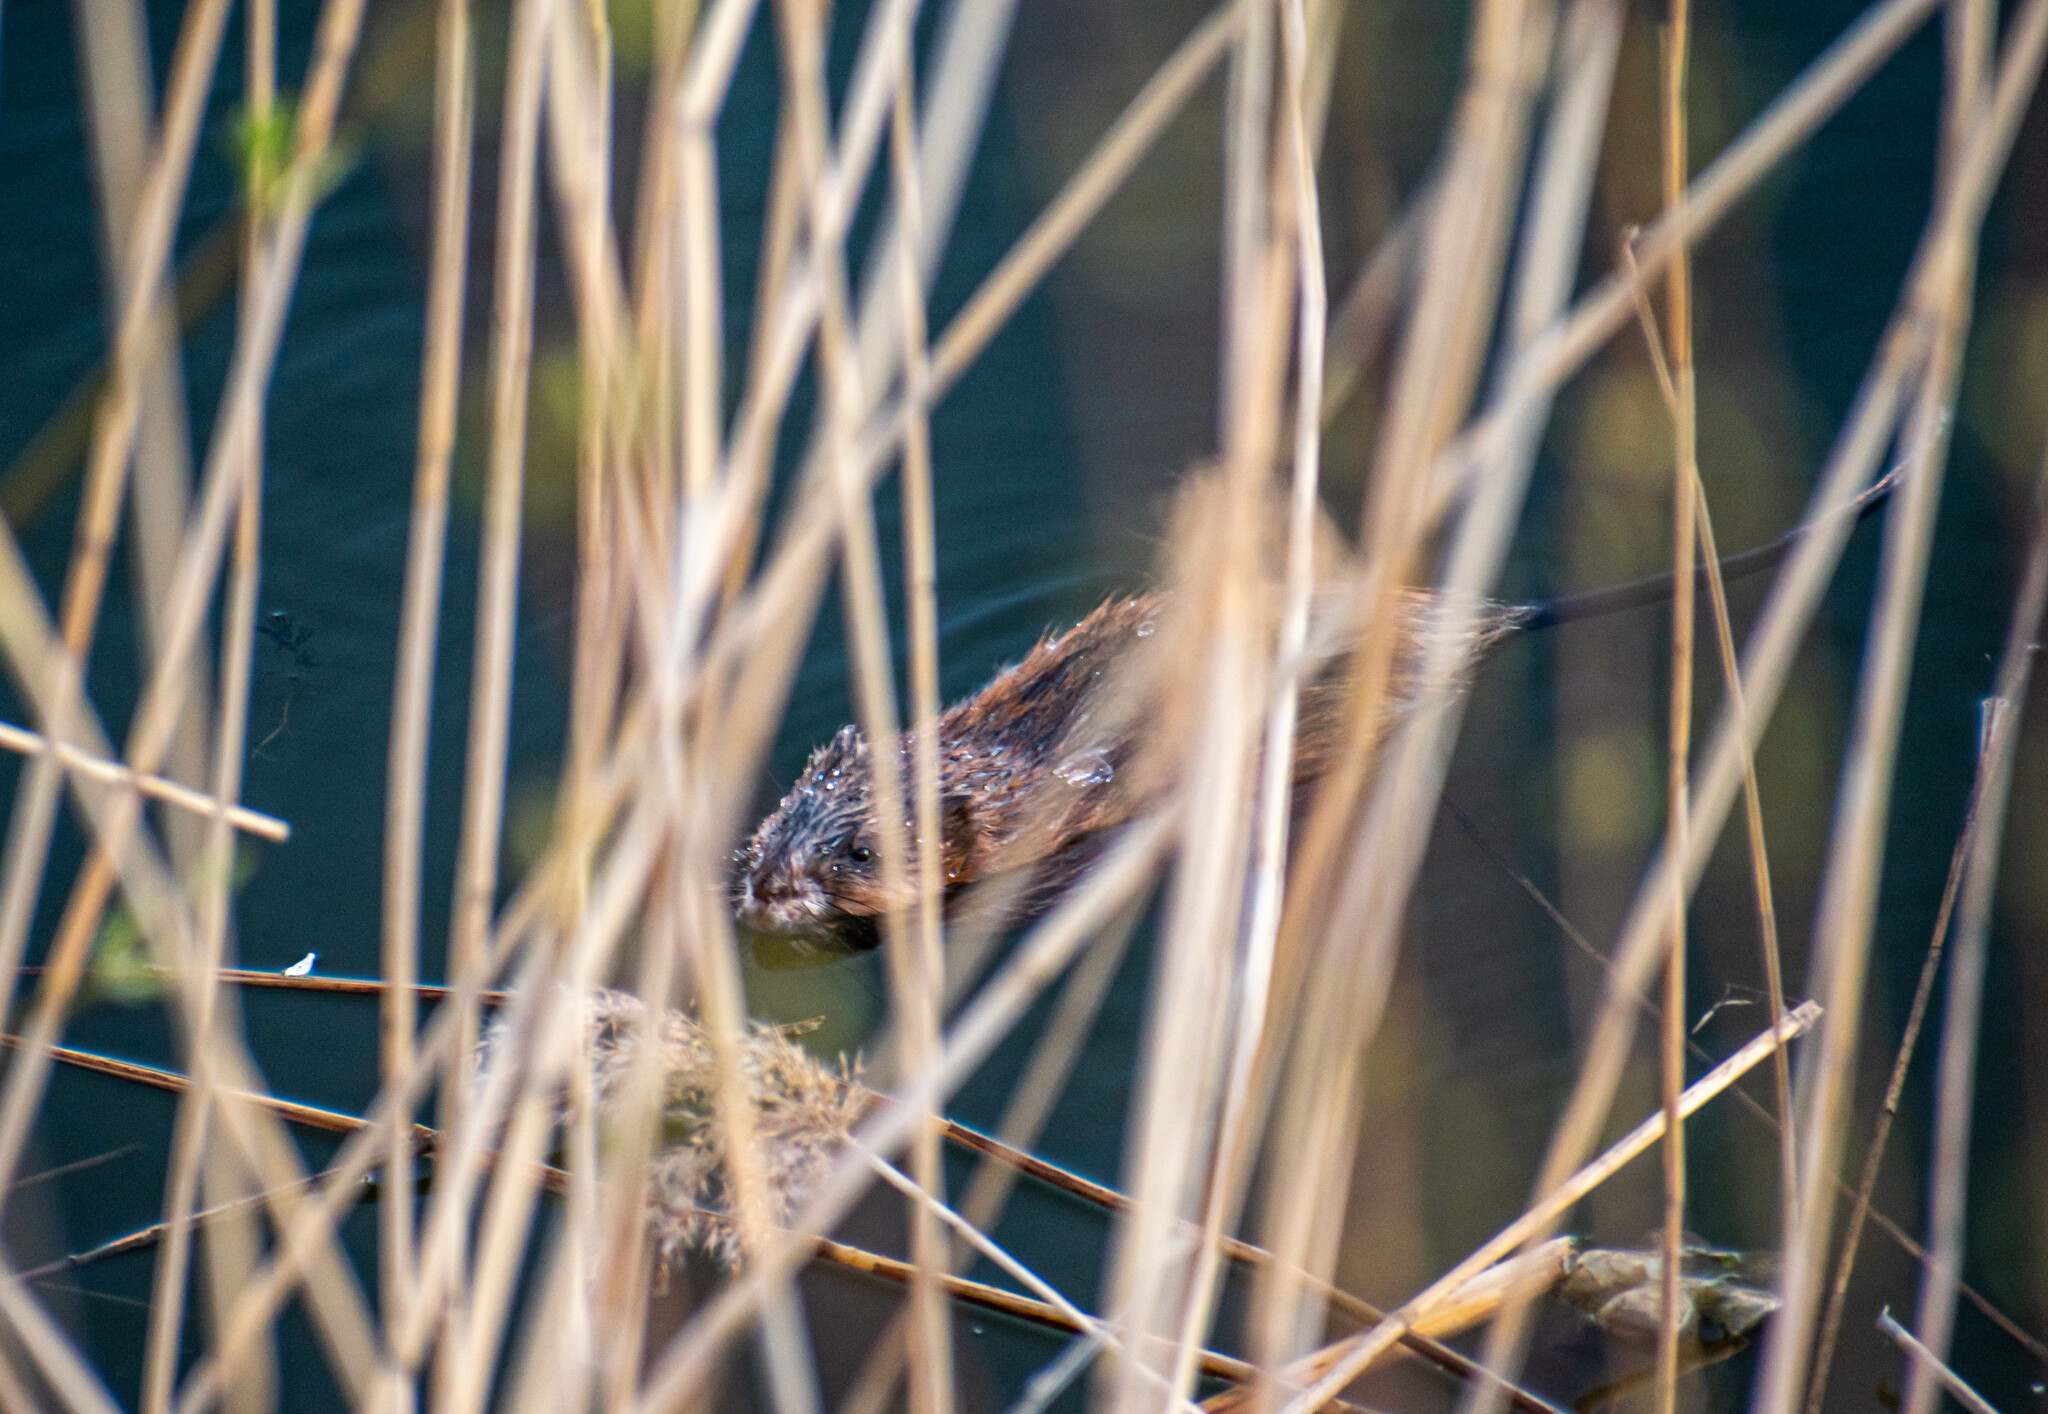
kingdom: Animalia
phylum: Chordata
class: Mammalia
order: Rodentia
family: Cricetidae
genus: Ondatra
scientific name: Ondatra zibethicus
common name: Muskrat
